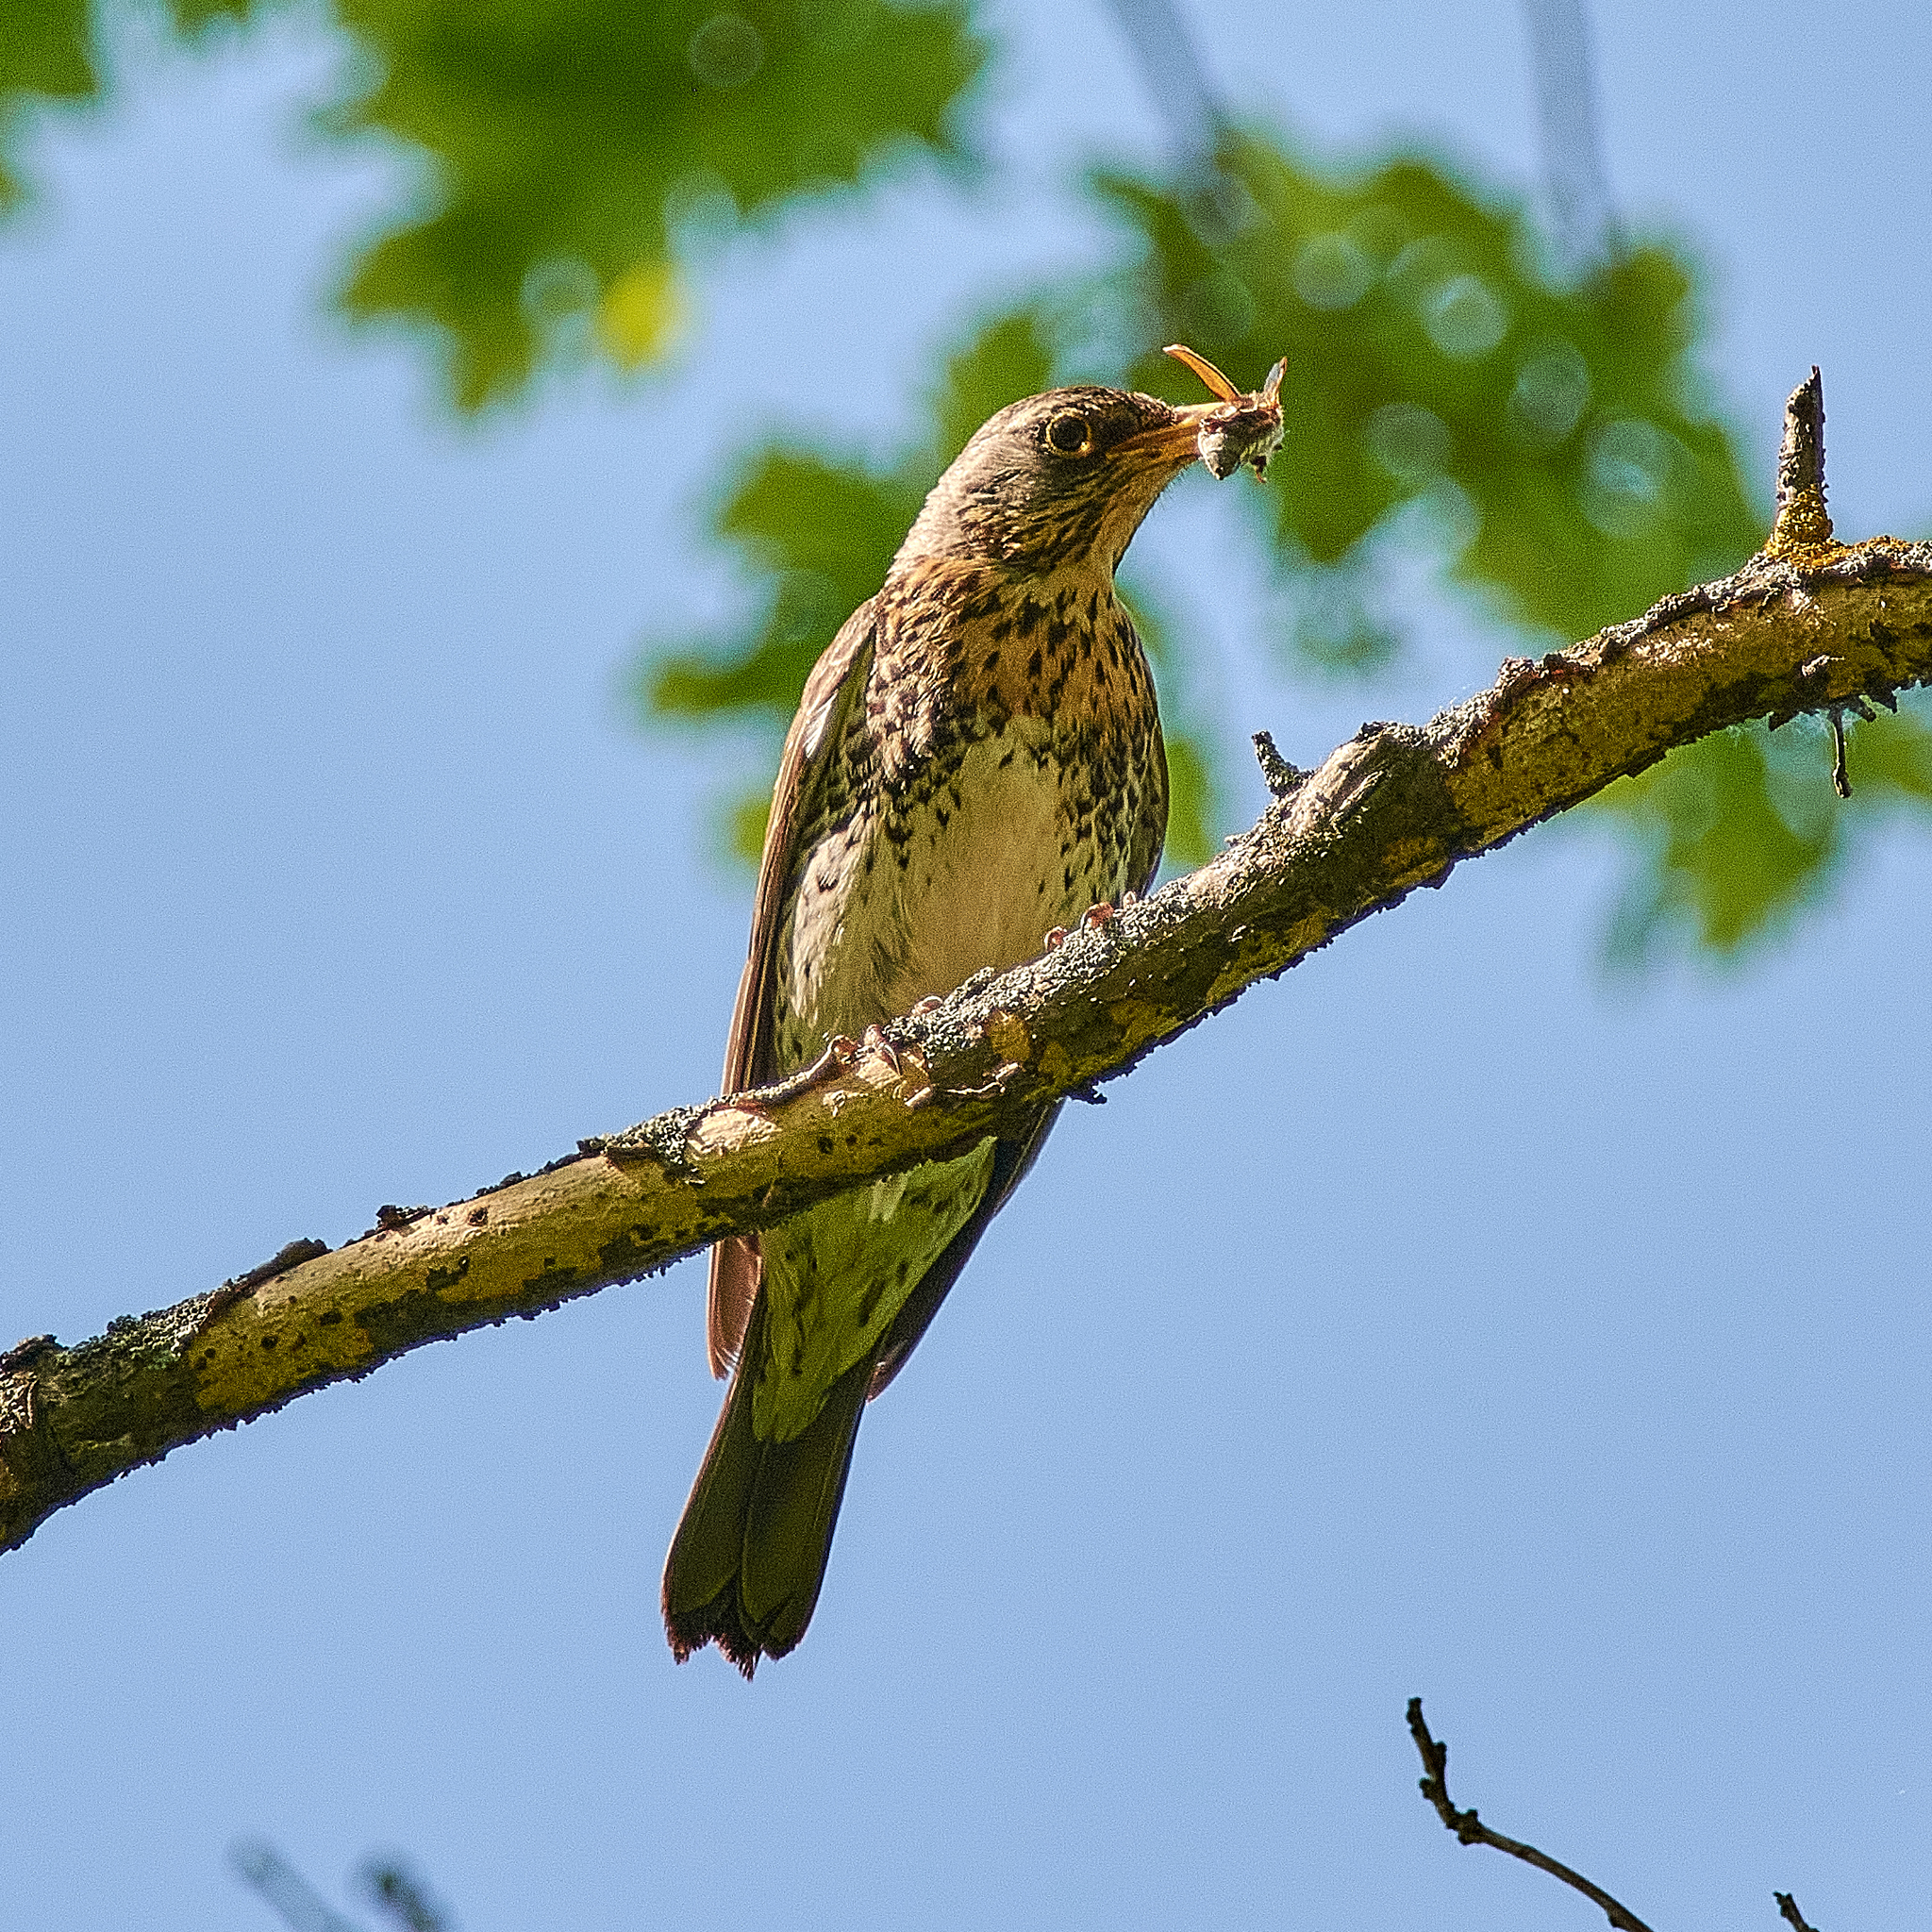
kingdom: Animalia
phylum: Chordata
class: Aves
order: Passeriformes
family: Turdidae
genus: Turdus
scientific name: Turdus pilaris
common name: Fieldfare
